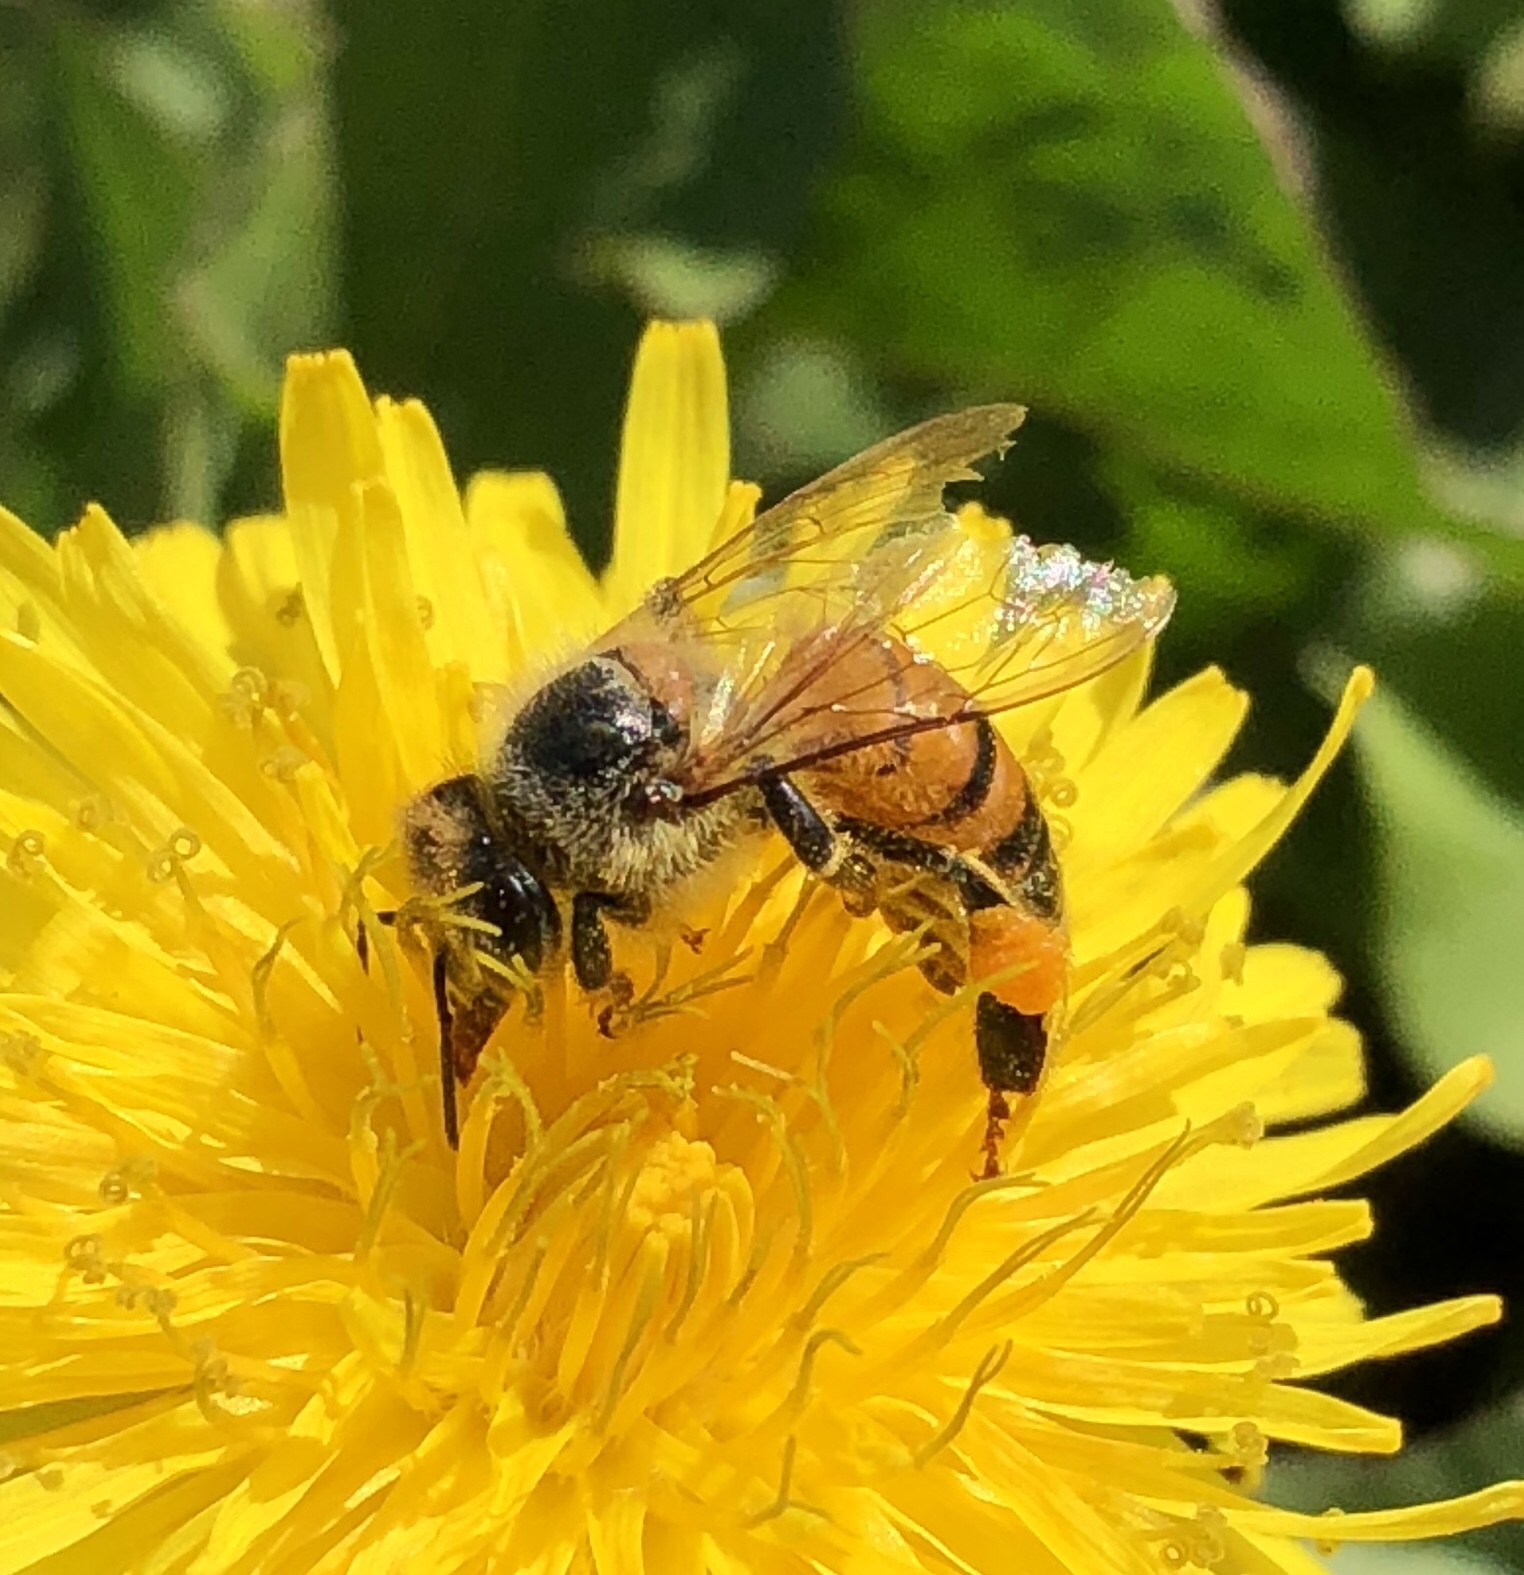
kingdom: Animalia
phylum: Arthropoda
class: Insecta
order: Hymenoptera
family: Apidae
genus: Apis
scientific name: Apis mellifera
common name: Honey bee
